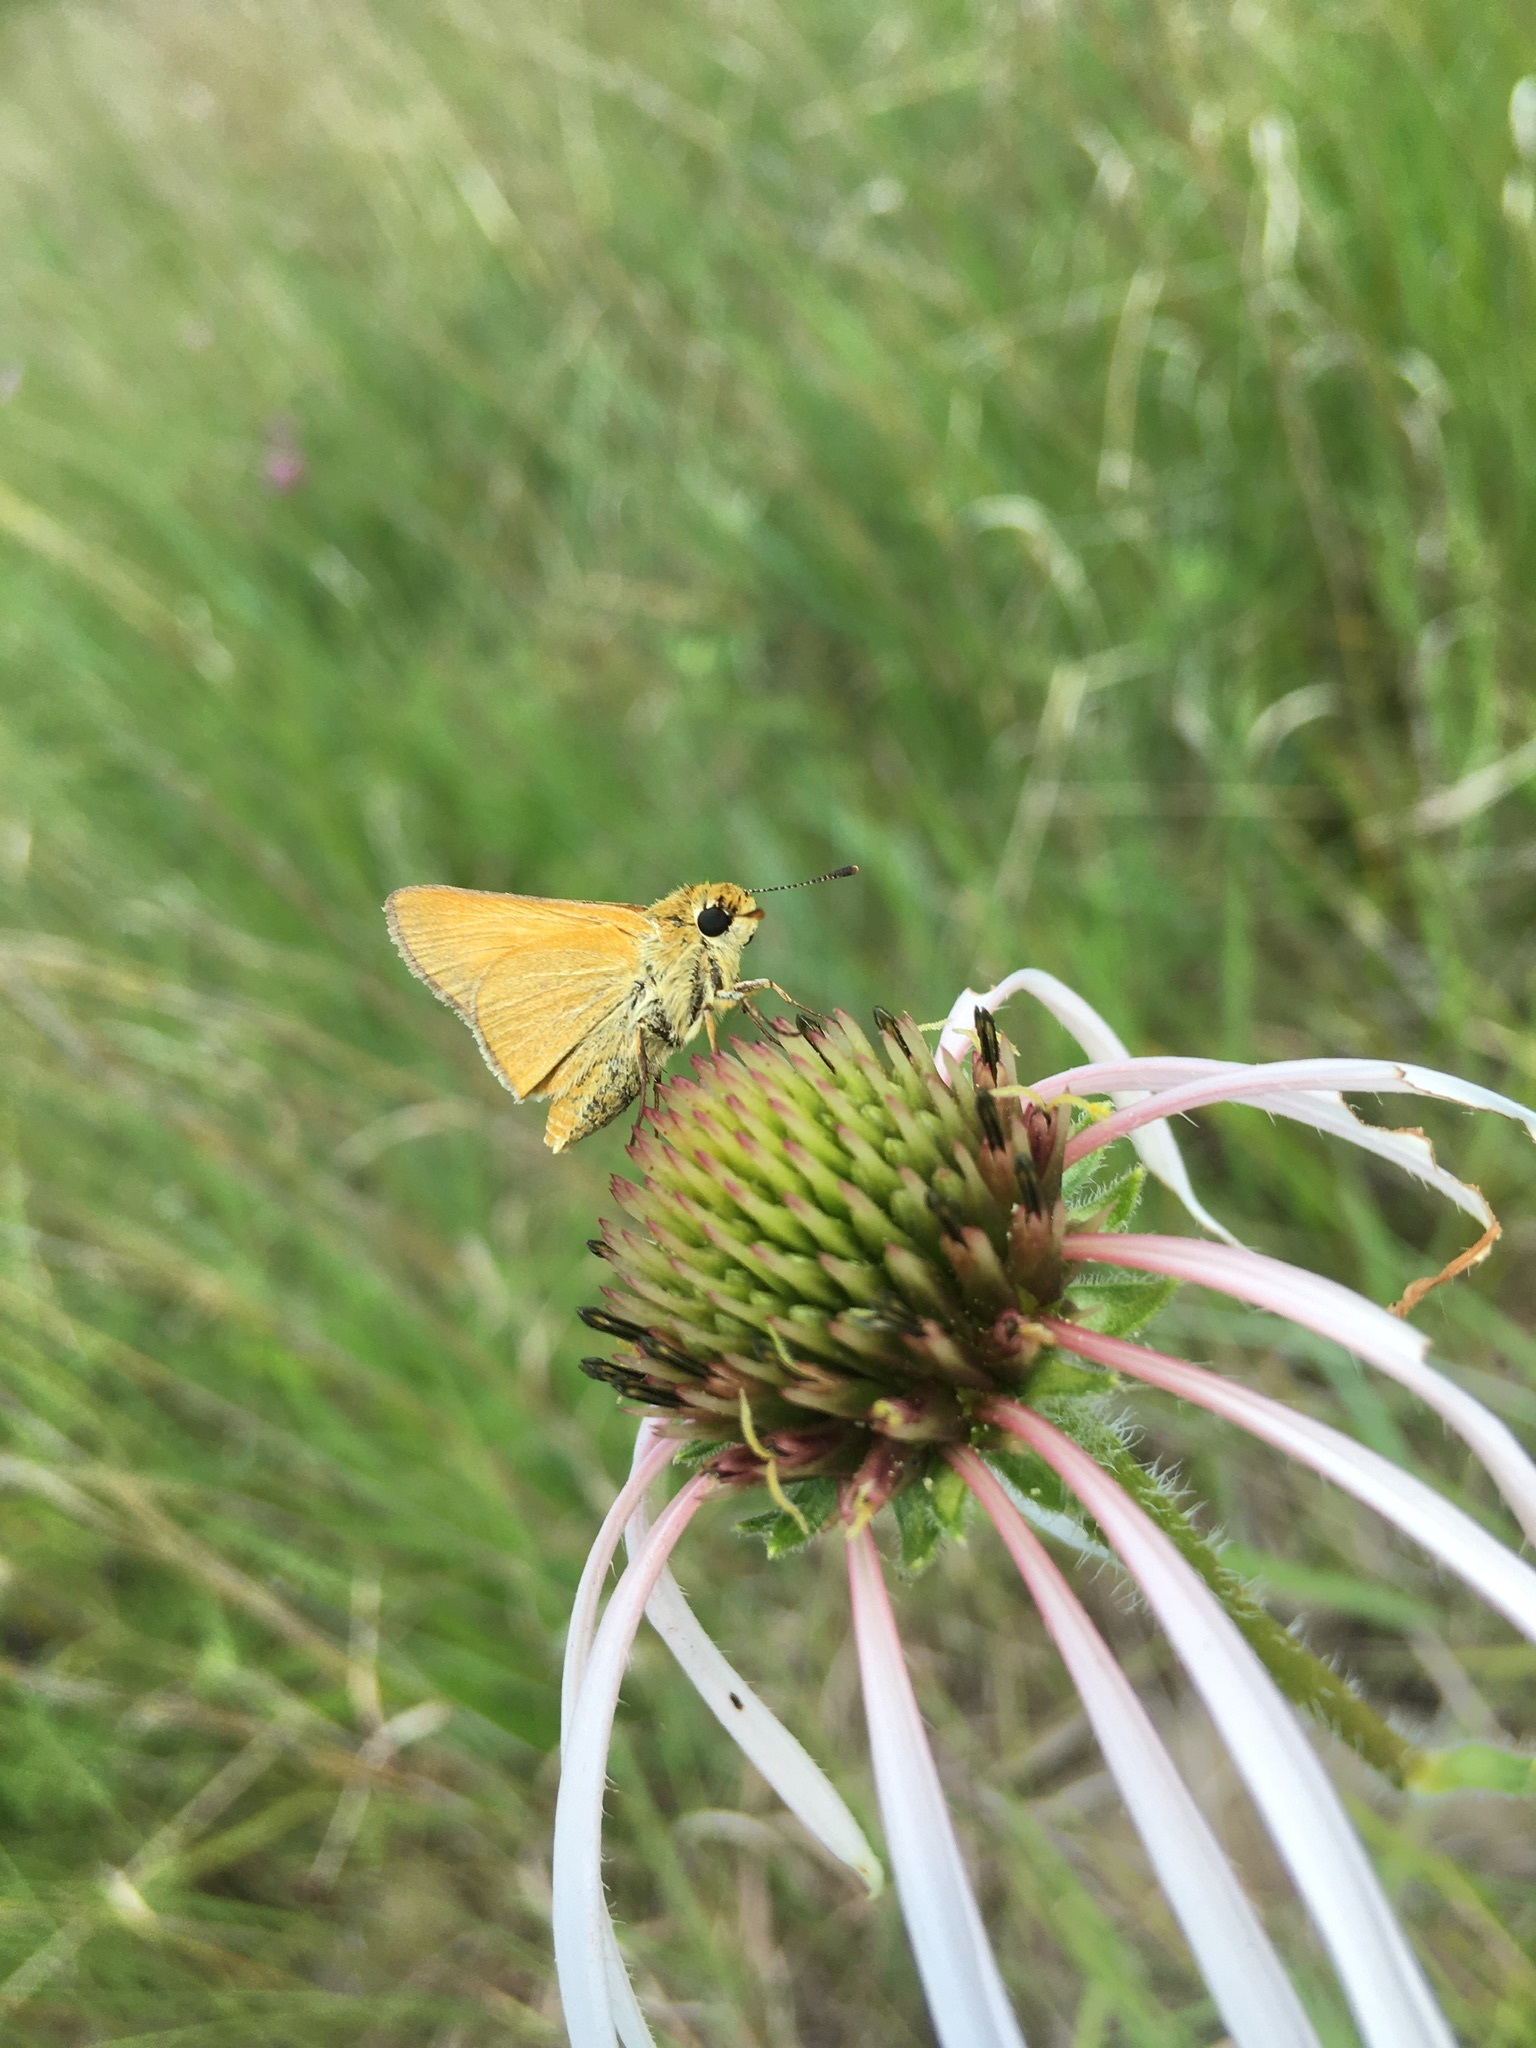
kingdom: Animalia
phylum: Arthropoda
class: Insecta
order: Lepidoptera
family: Hesperiidae
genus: Atrytone
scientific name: Atrytone arogos
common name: Arogos skipper
